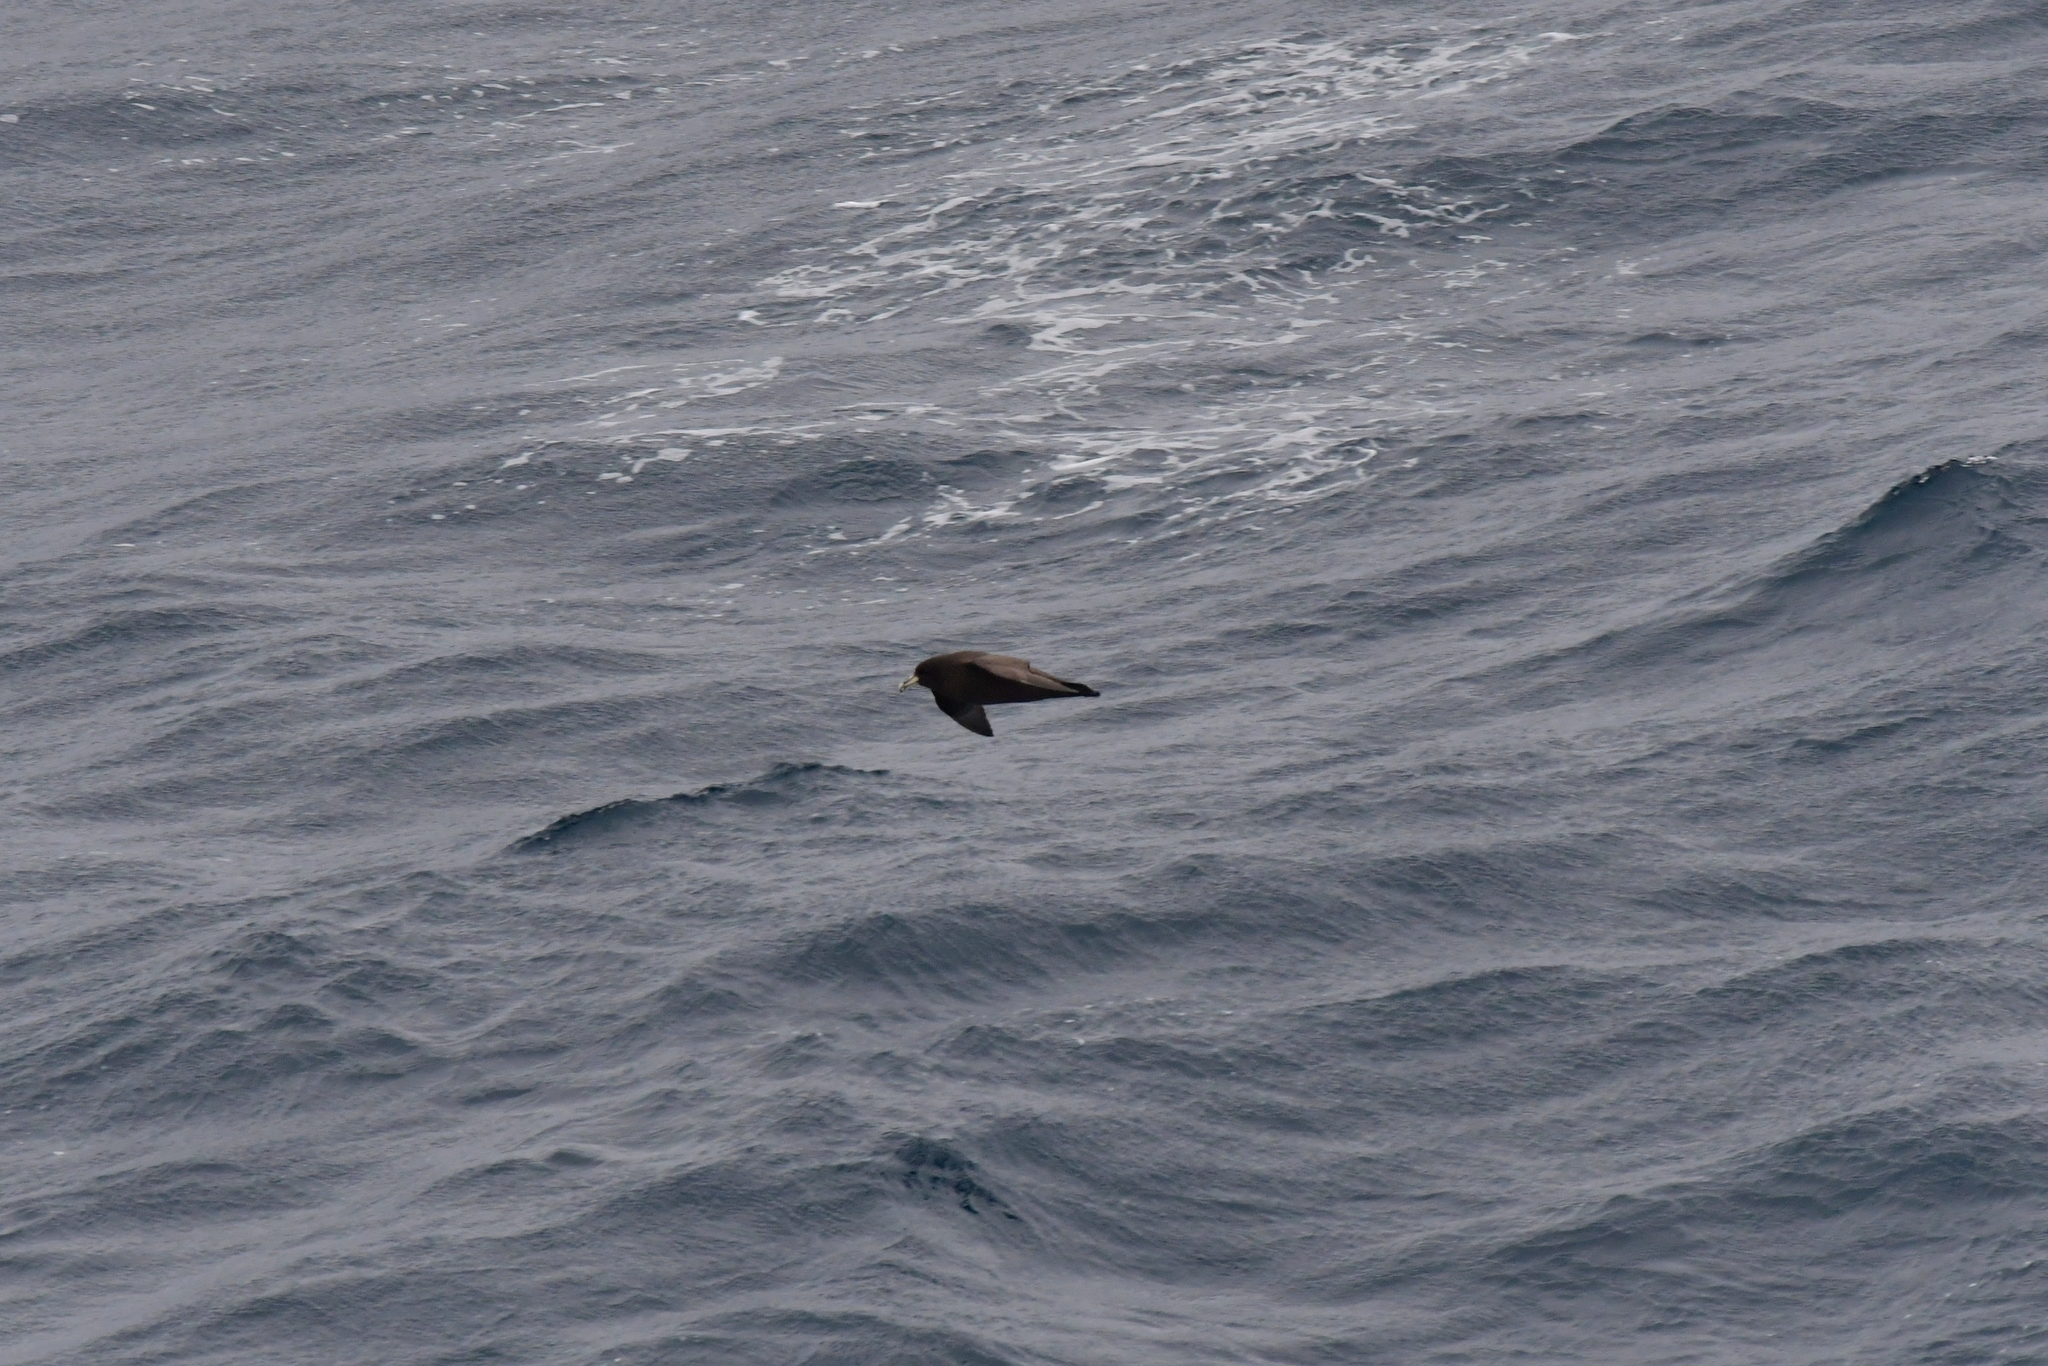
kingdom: Animalia
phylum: Chordata
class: Aves
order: Procellariiformes
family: Procellariidae
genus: Procellaria
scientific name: Procellaria aequinoctialis
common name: White-chinned petrel
